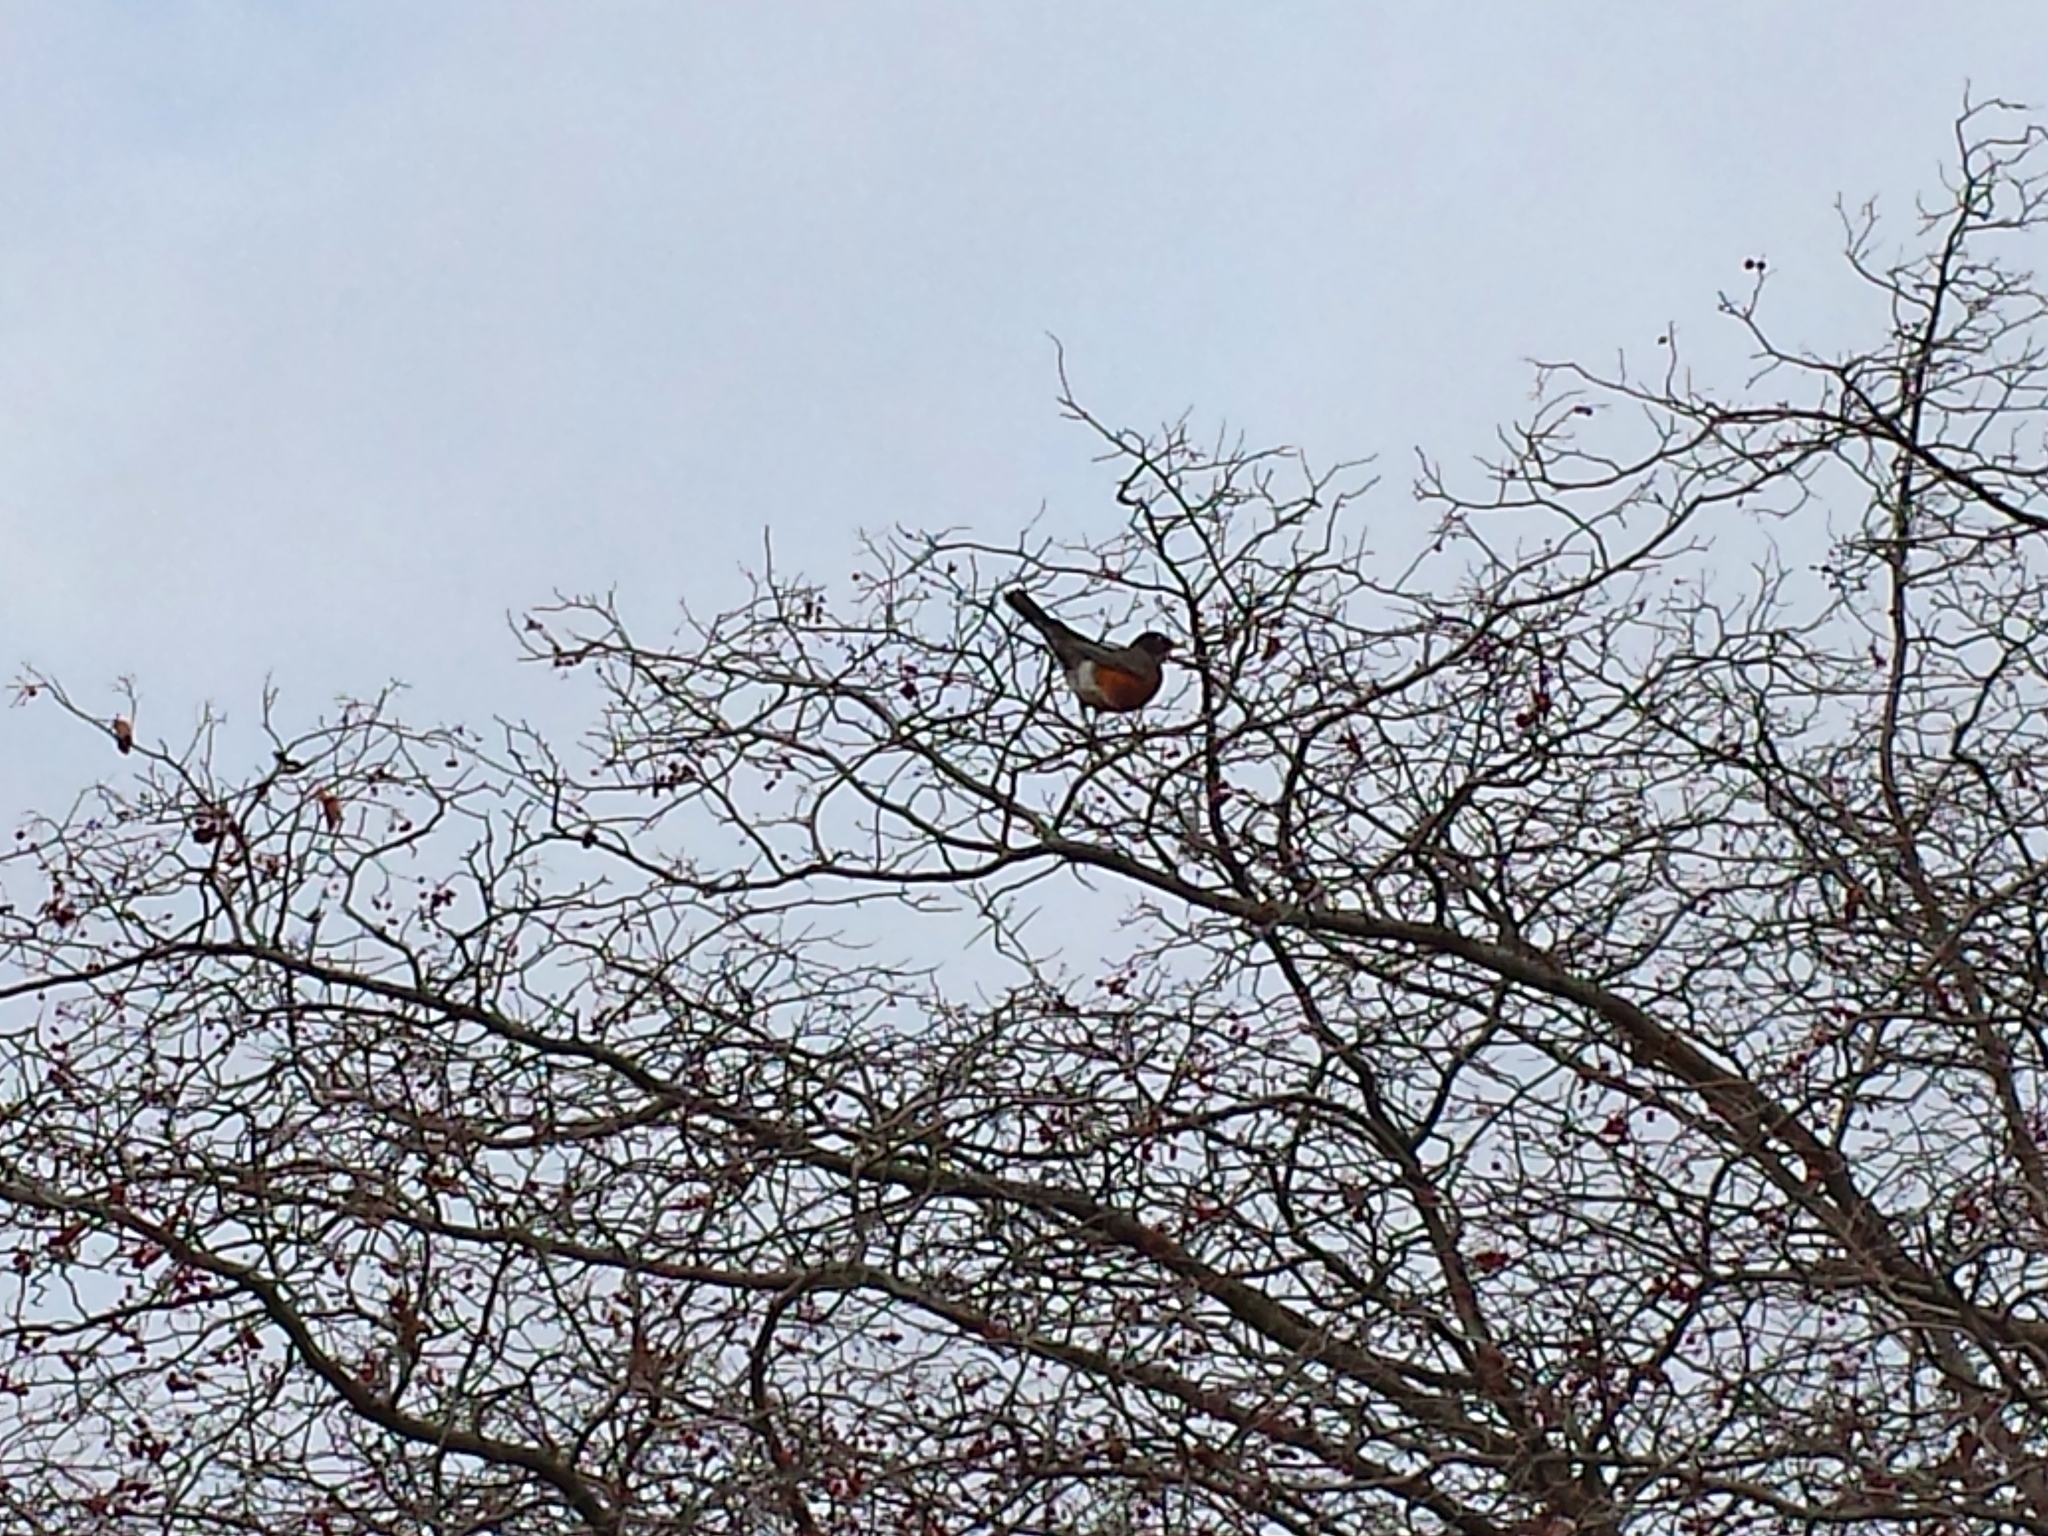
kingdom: Animalia
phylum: Chordata
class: Aves
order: Passeriformes
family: Turdidae
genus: Turdus
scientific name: Turdus migratorius
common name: American robin
